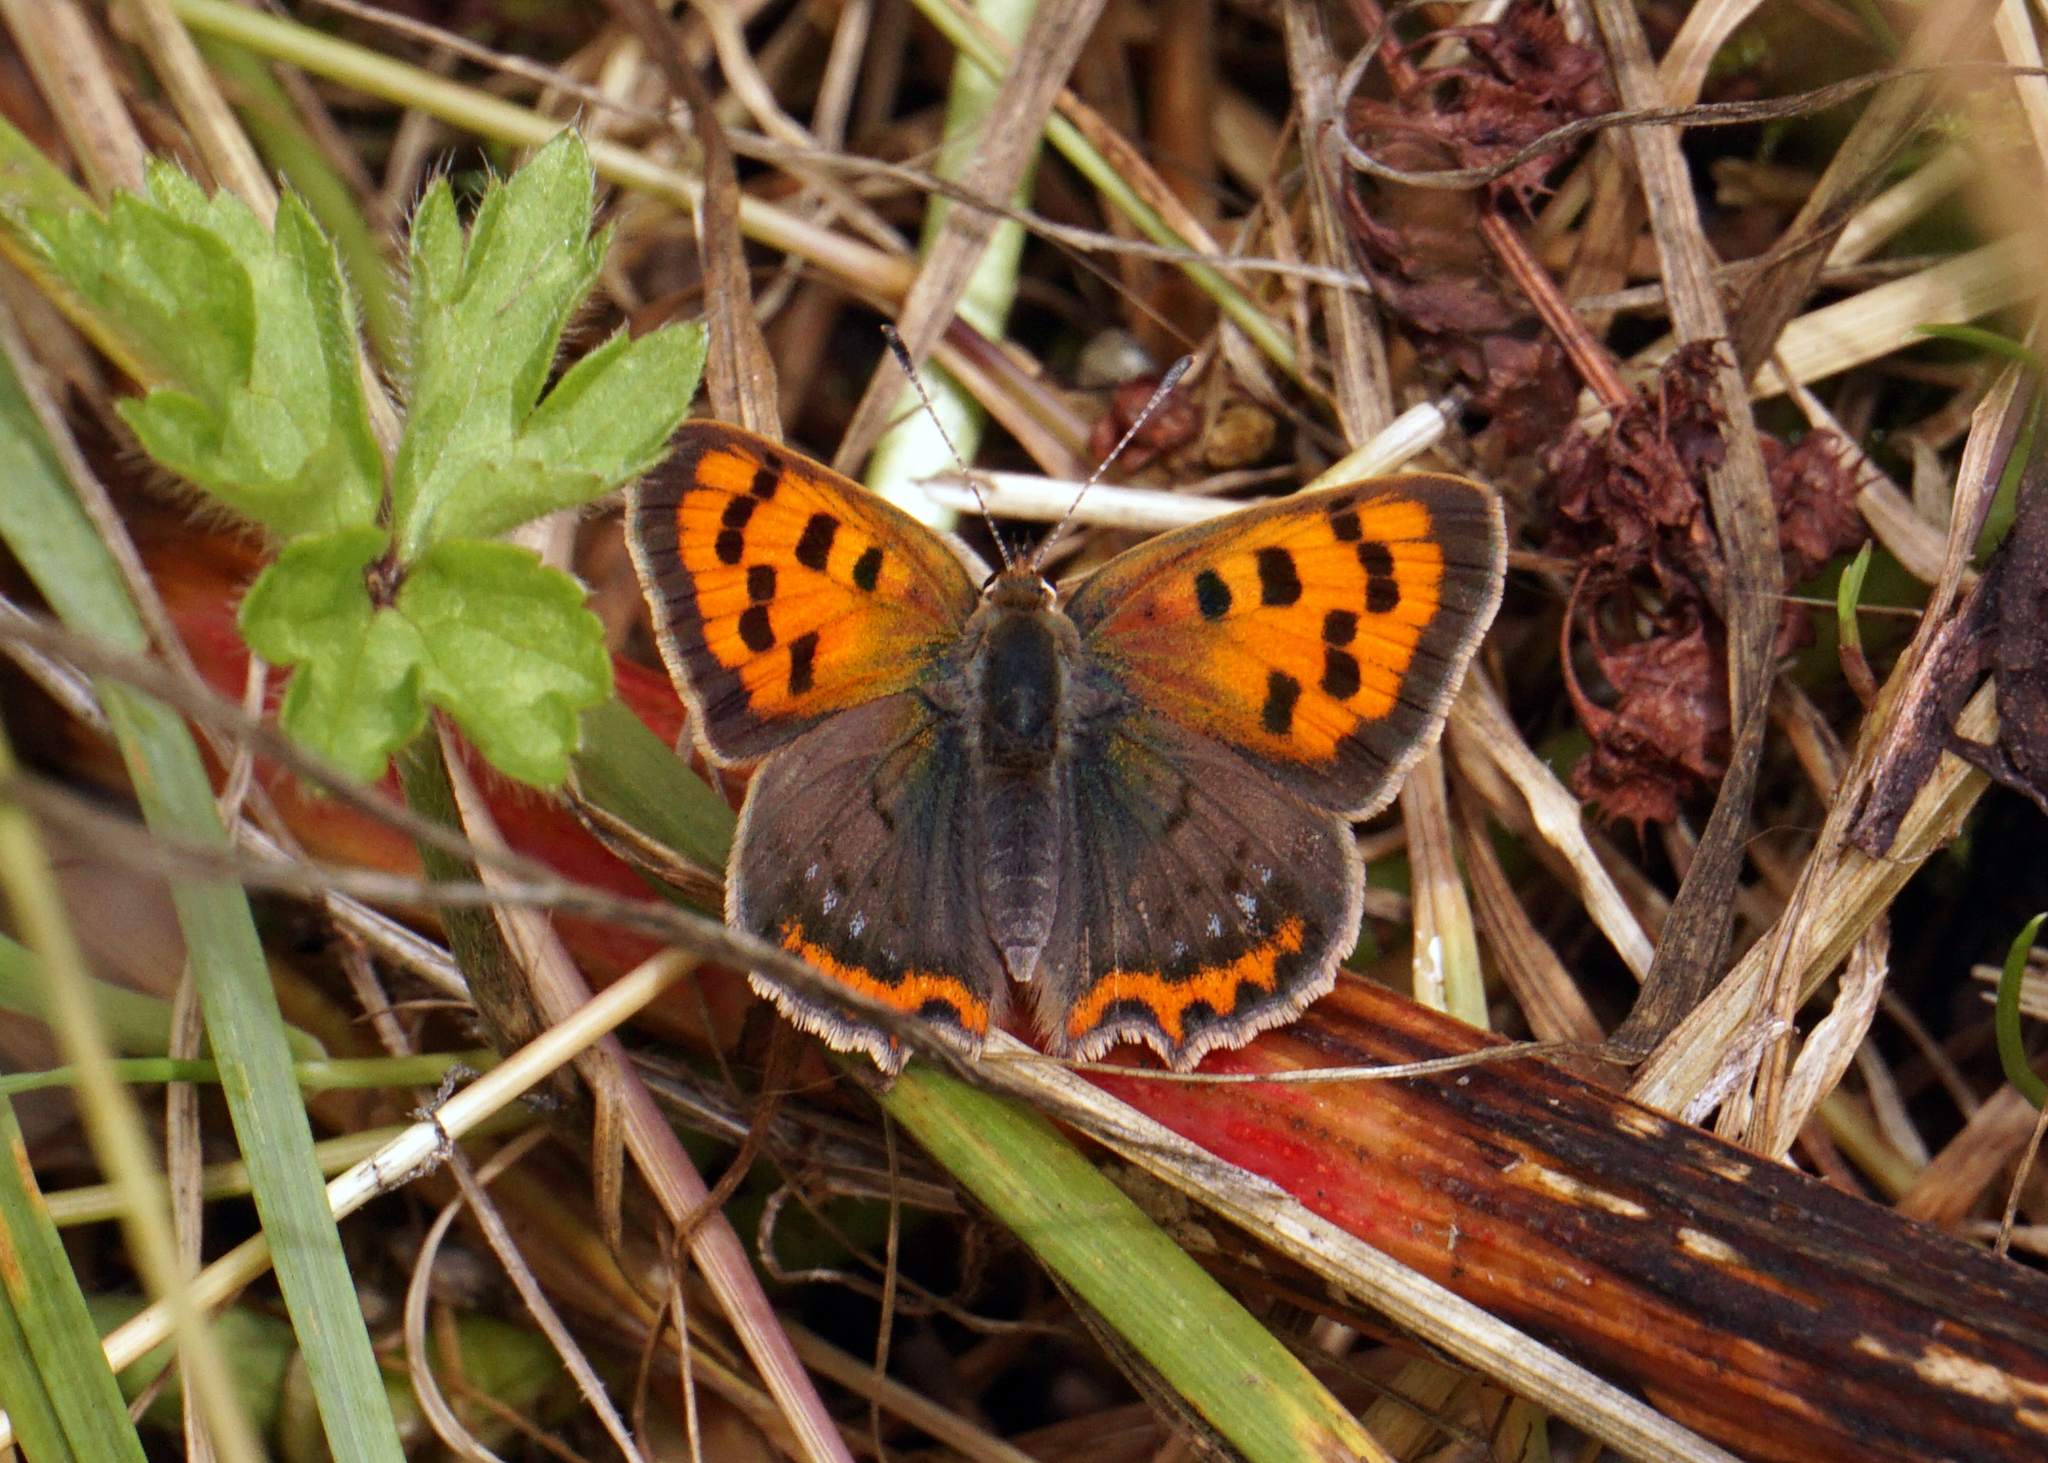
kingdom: Animalia
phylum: Arthropoda
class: Insecta
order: Lepidoptera
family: Lycaenidae
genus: Lycaena
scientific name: Lycaena phlaeas
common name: Small copper
